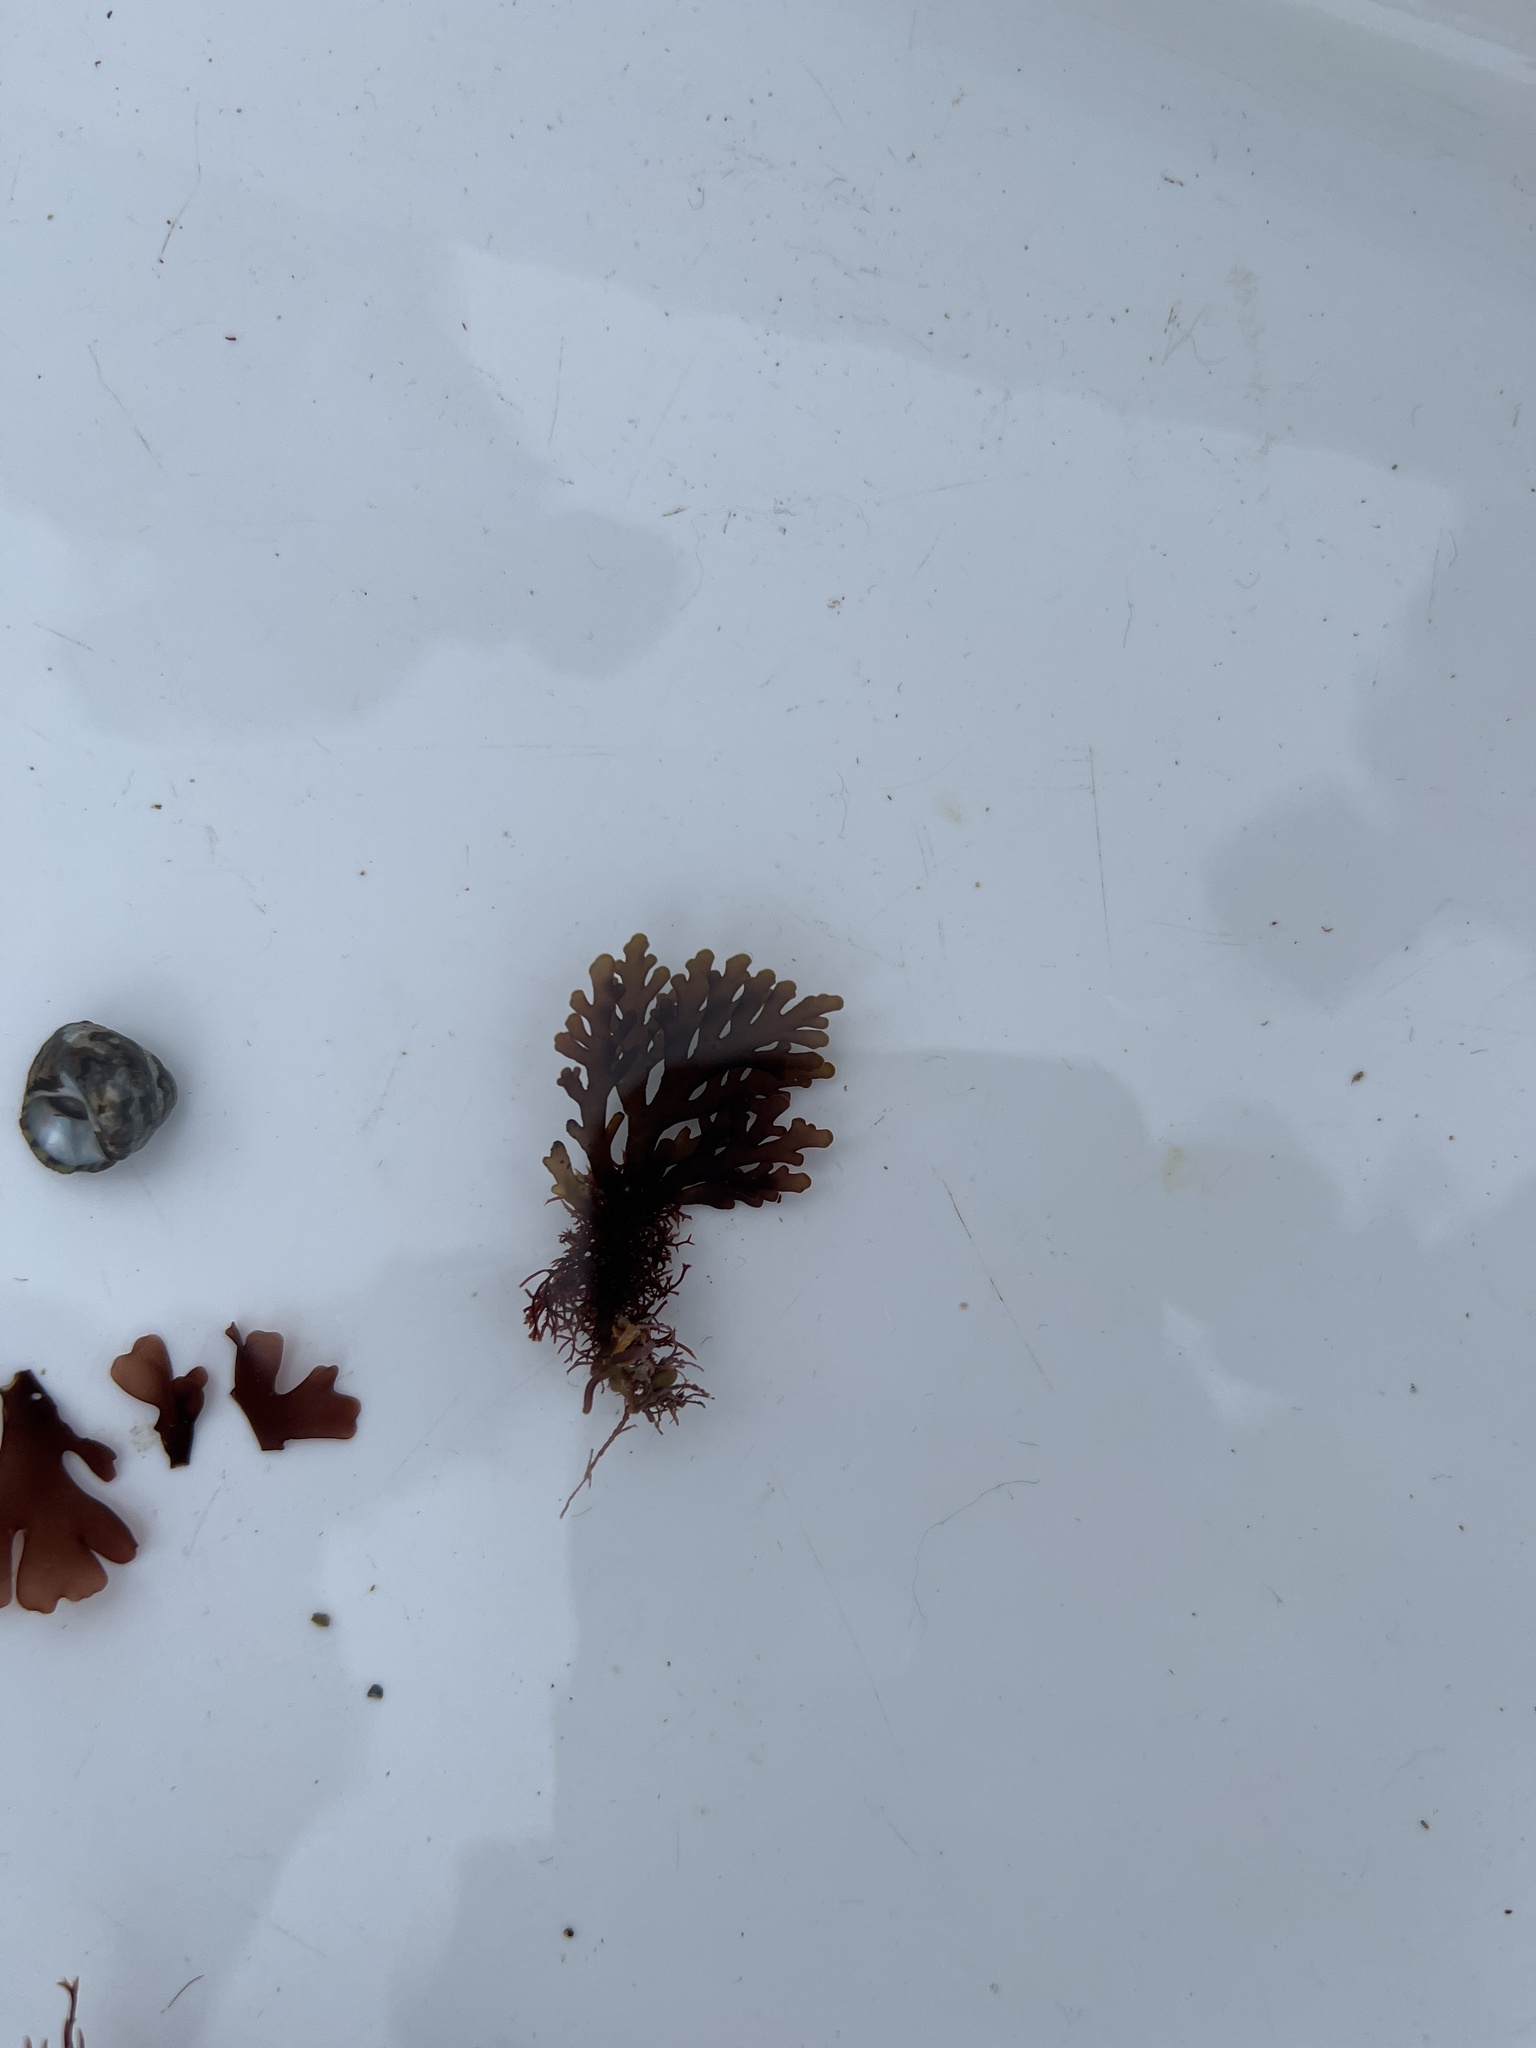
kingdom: Plantae
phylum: Rhodophyta
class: Florideophyceae
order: Ceramiales
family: Rhodomelaceae
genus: Laurencia
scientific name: Laurencia Osmundea pinnatifida
